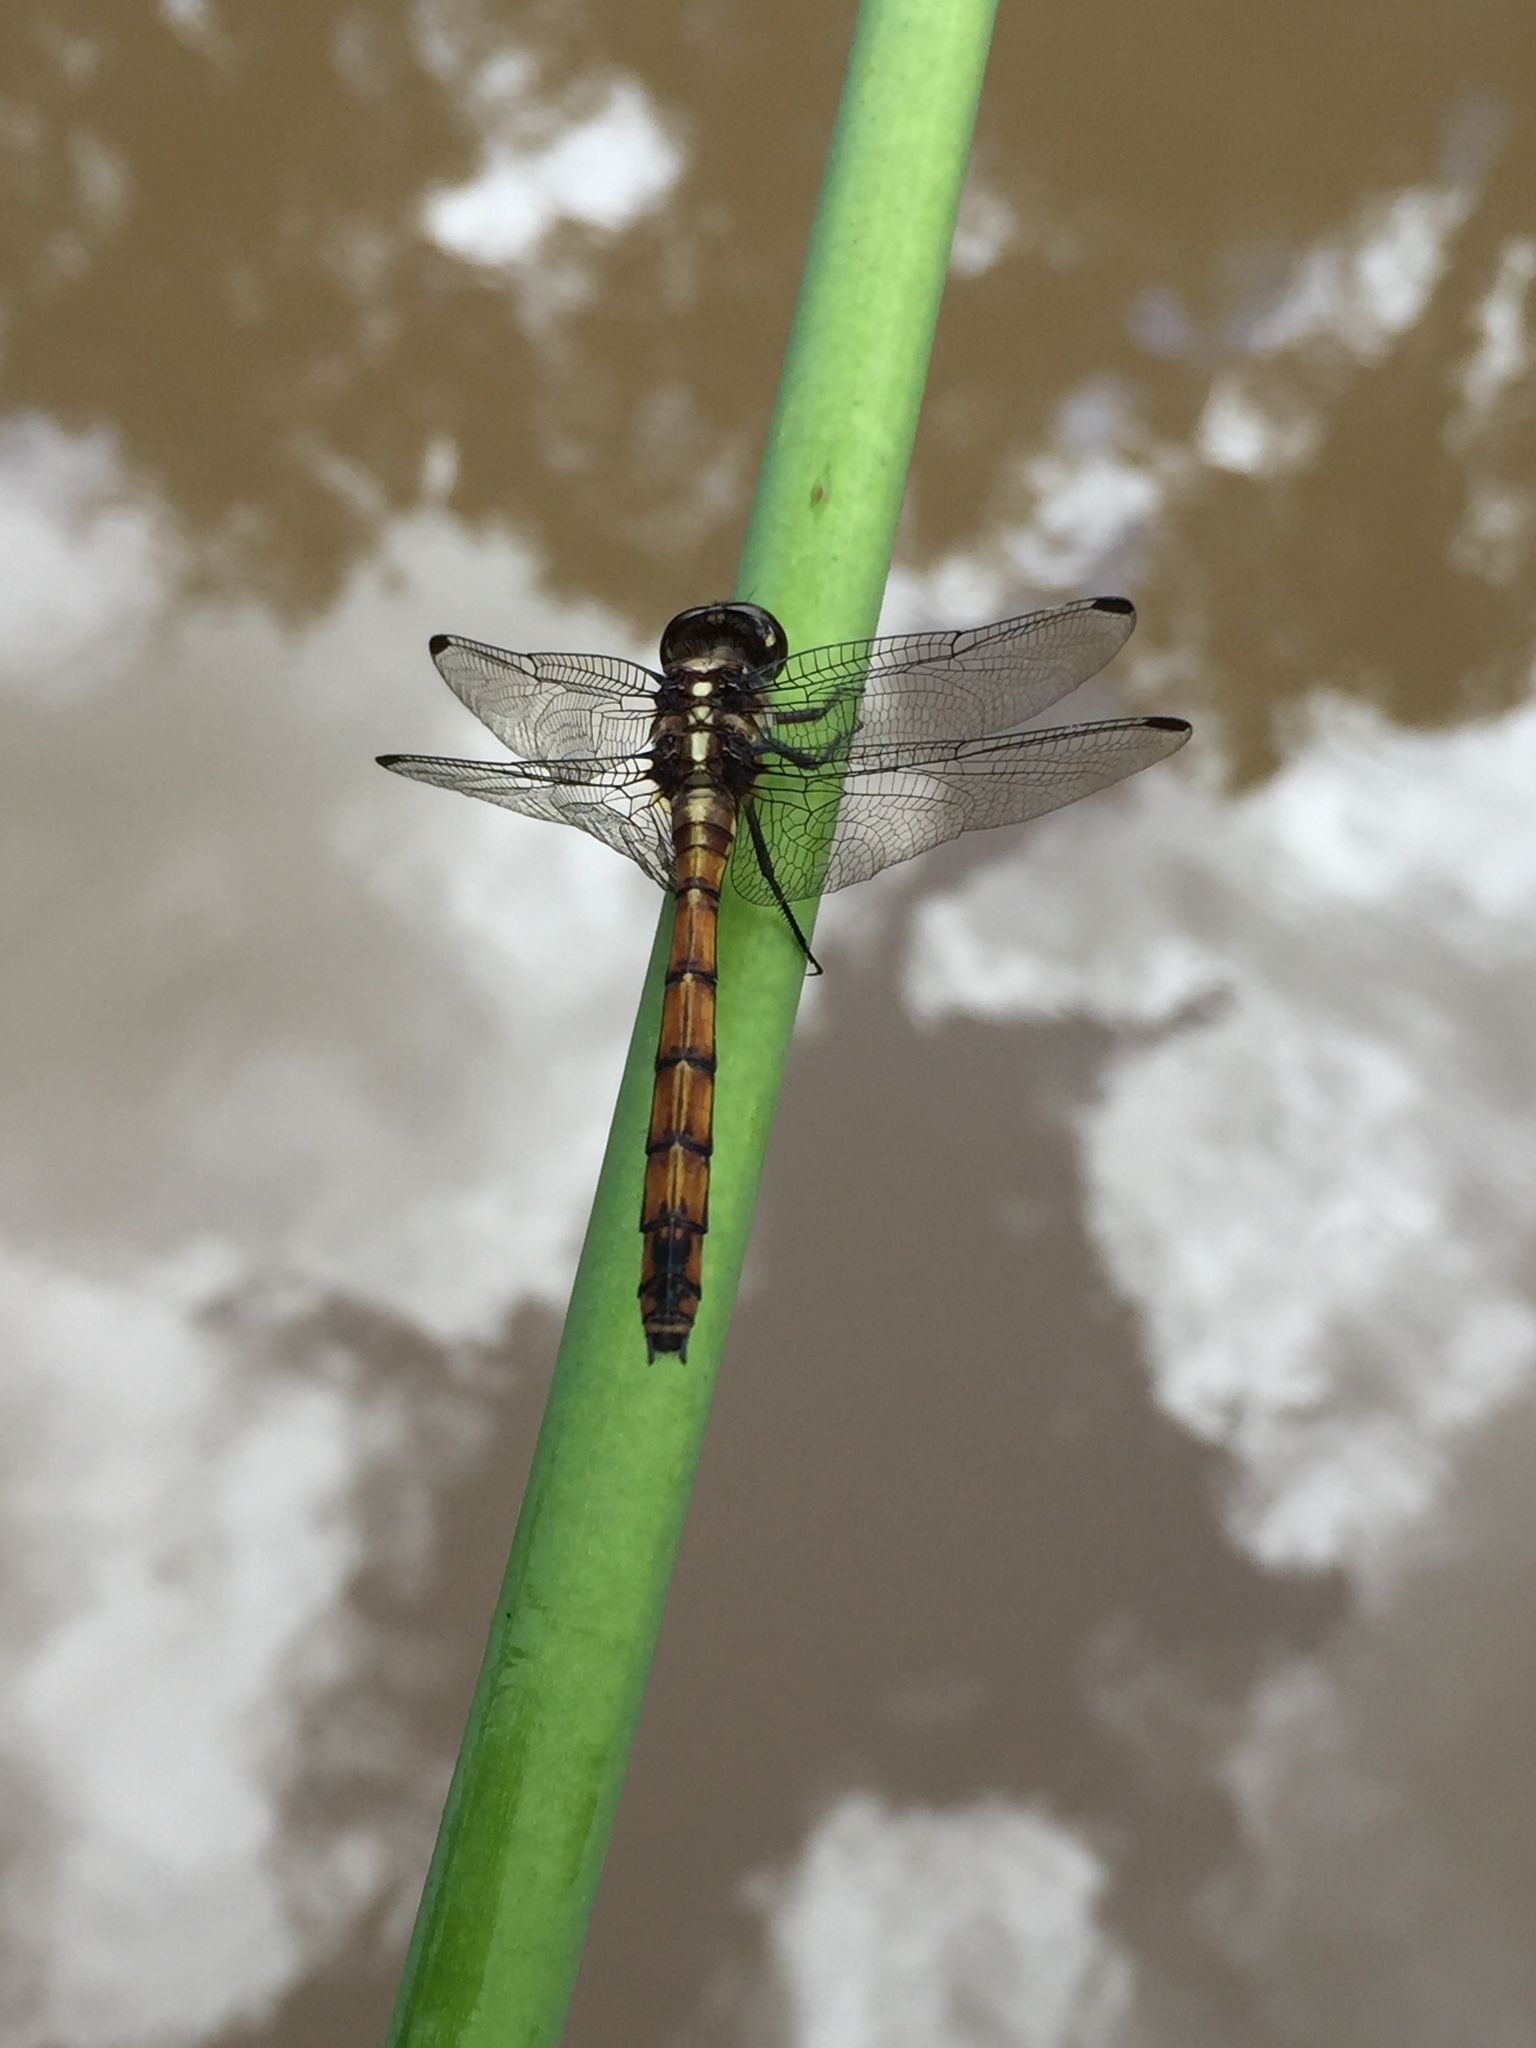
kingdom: Animalia
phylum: Arthropoda
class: Insecta
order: Odonata
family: Libellulidae
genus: Orthemis
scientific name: Orthemis ambinigra
